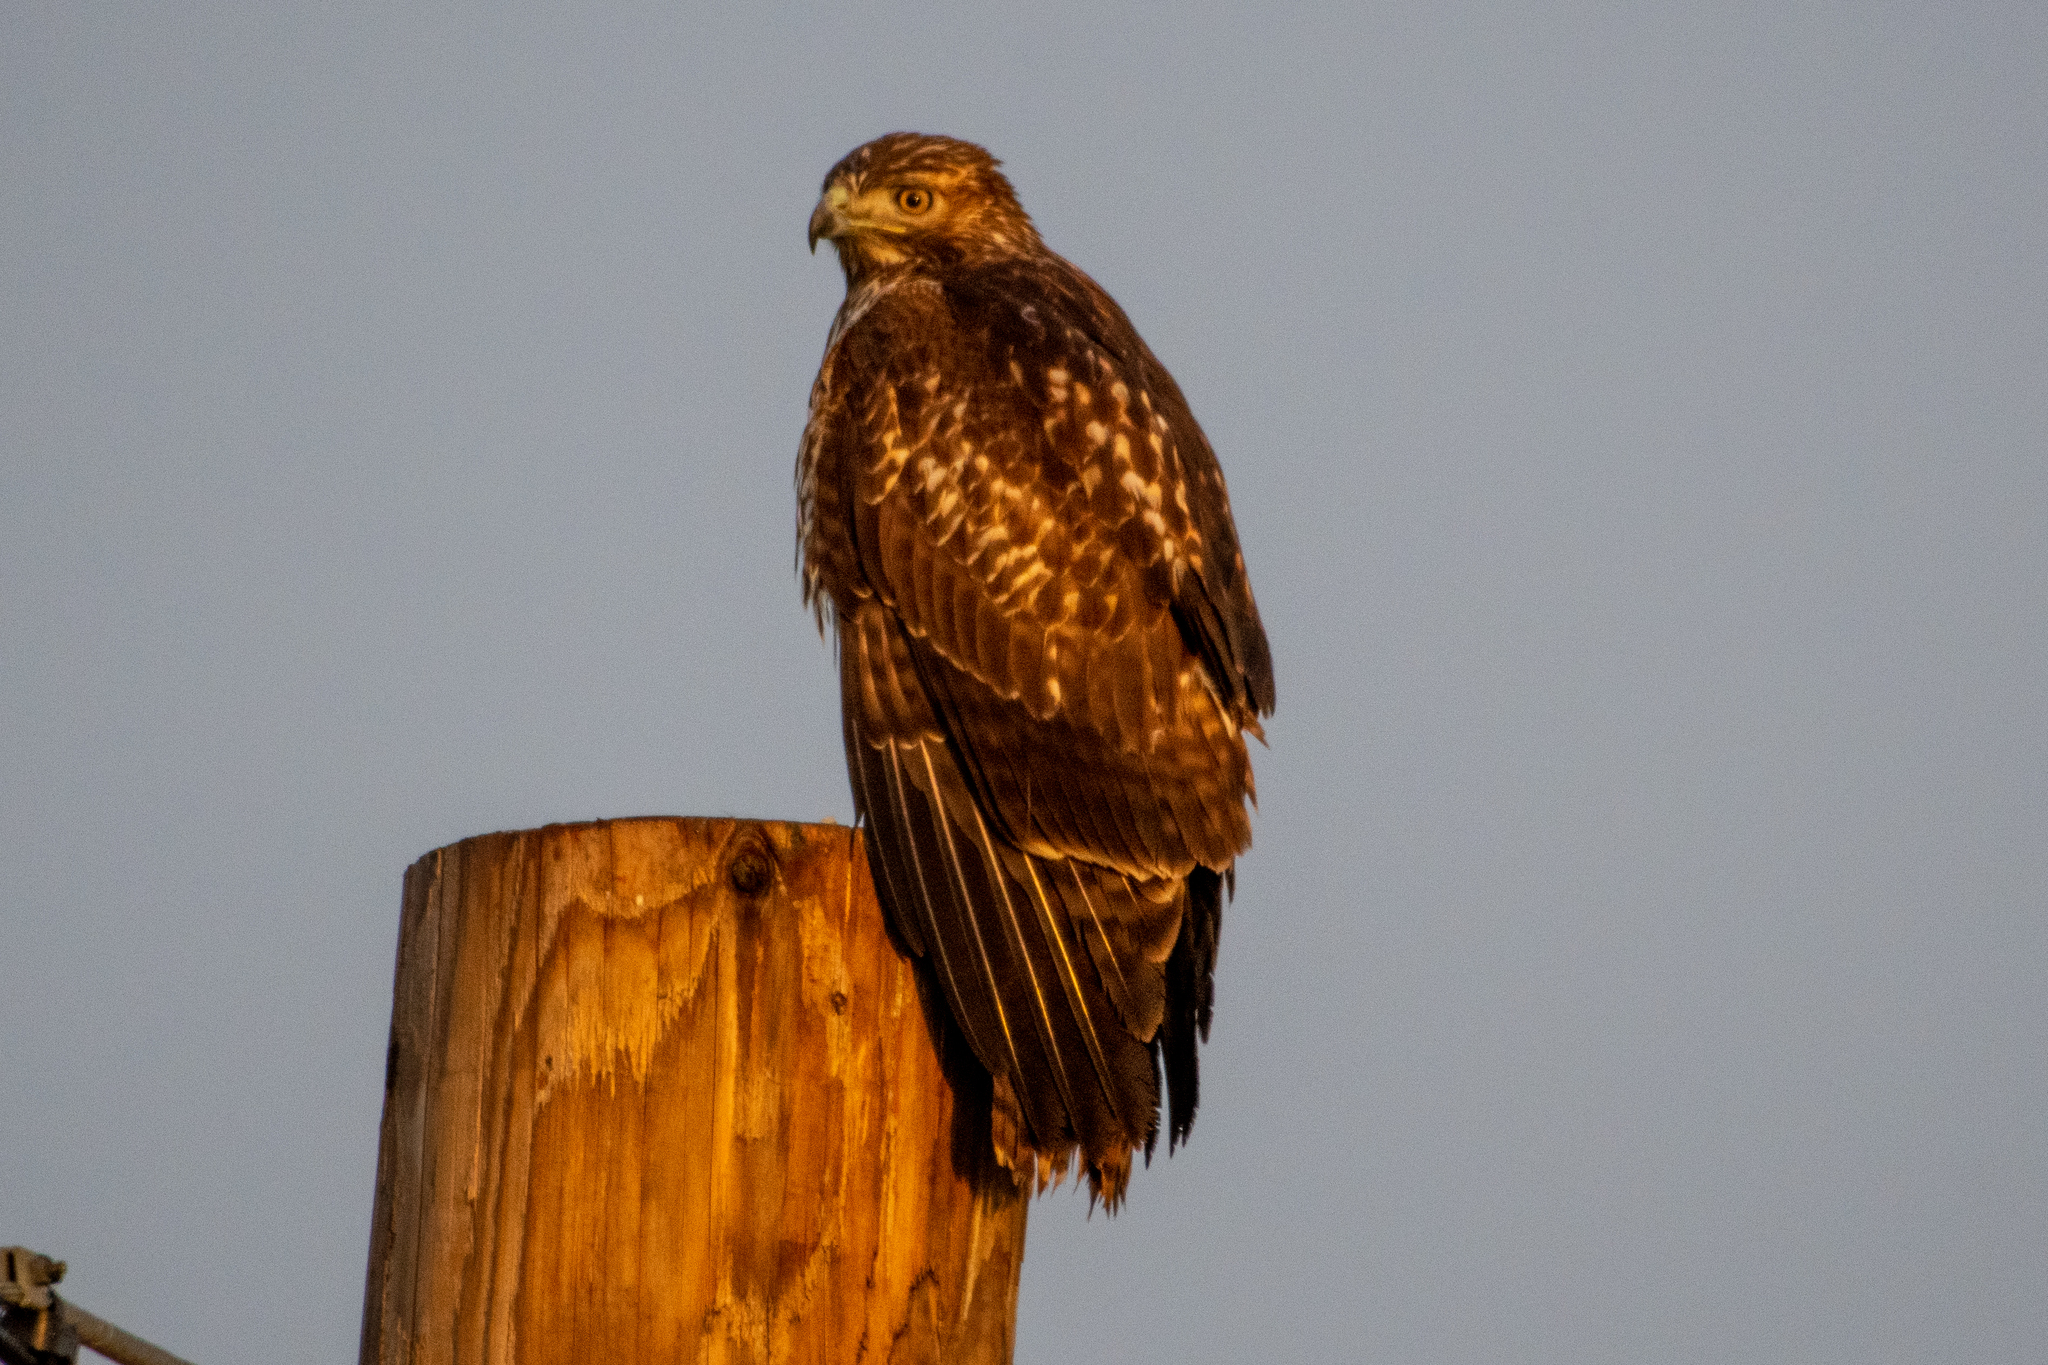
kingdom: Animalia
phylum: Chordata
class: Aves
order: Accipitriformes
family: Accipitridae
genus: Buteo
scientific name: Buteo jamaicensis
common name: Red-tailed hawk
